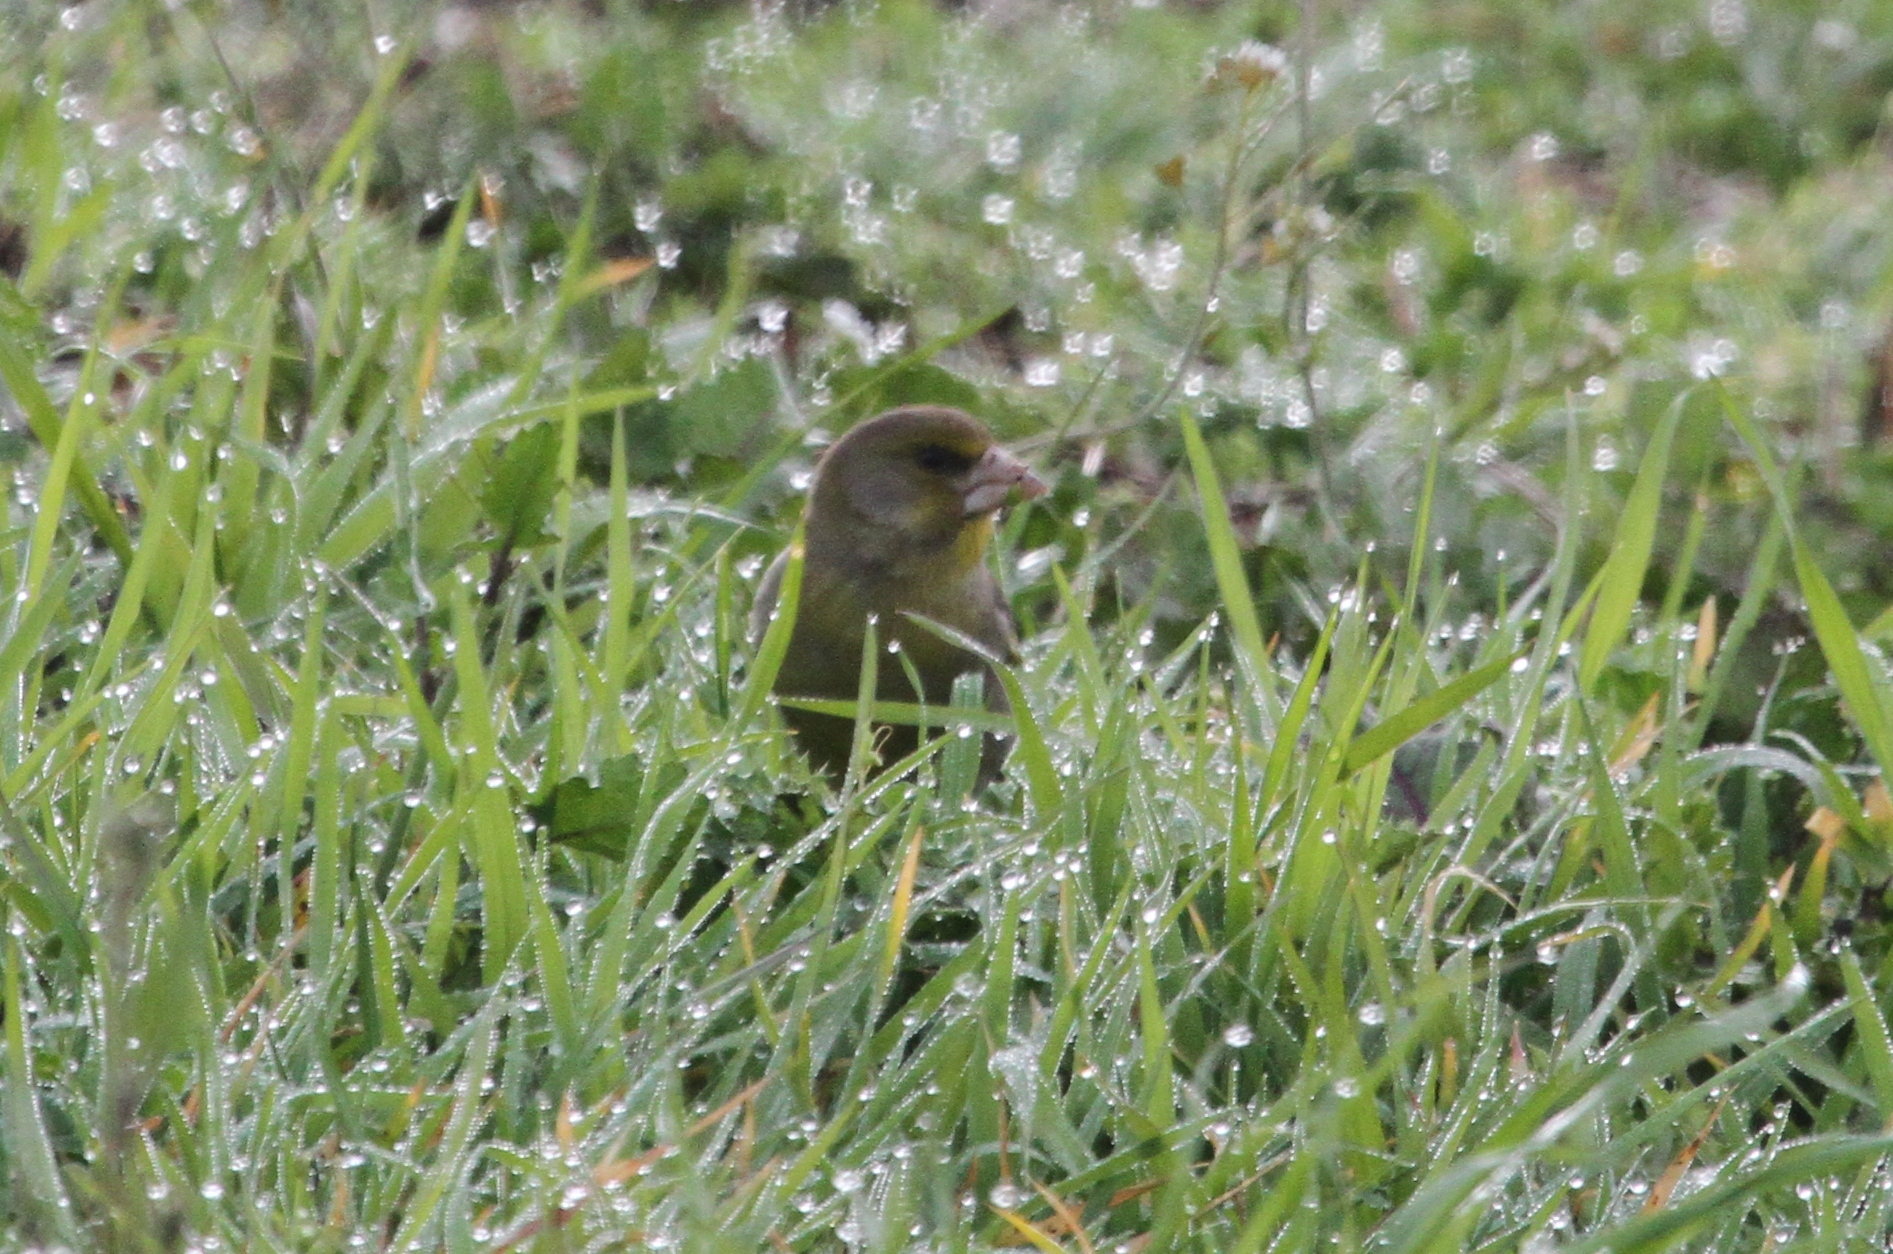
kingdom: Plantae
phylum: Tracheophyta
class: Liliopsida
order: Poales
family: Poaceae
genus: Chloris
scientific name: Chloris chloris
